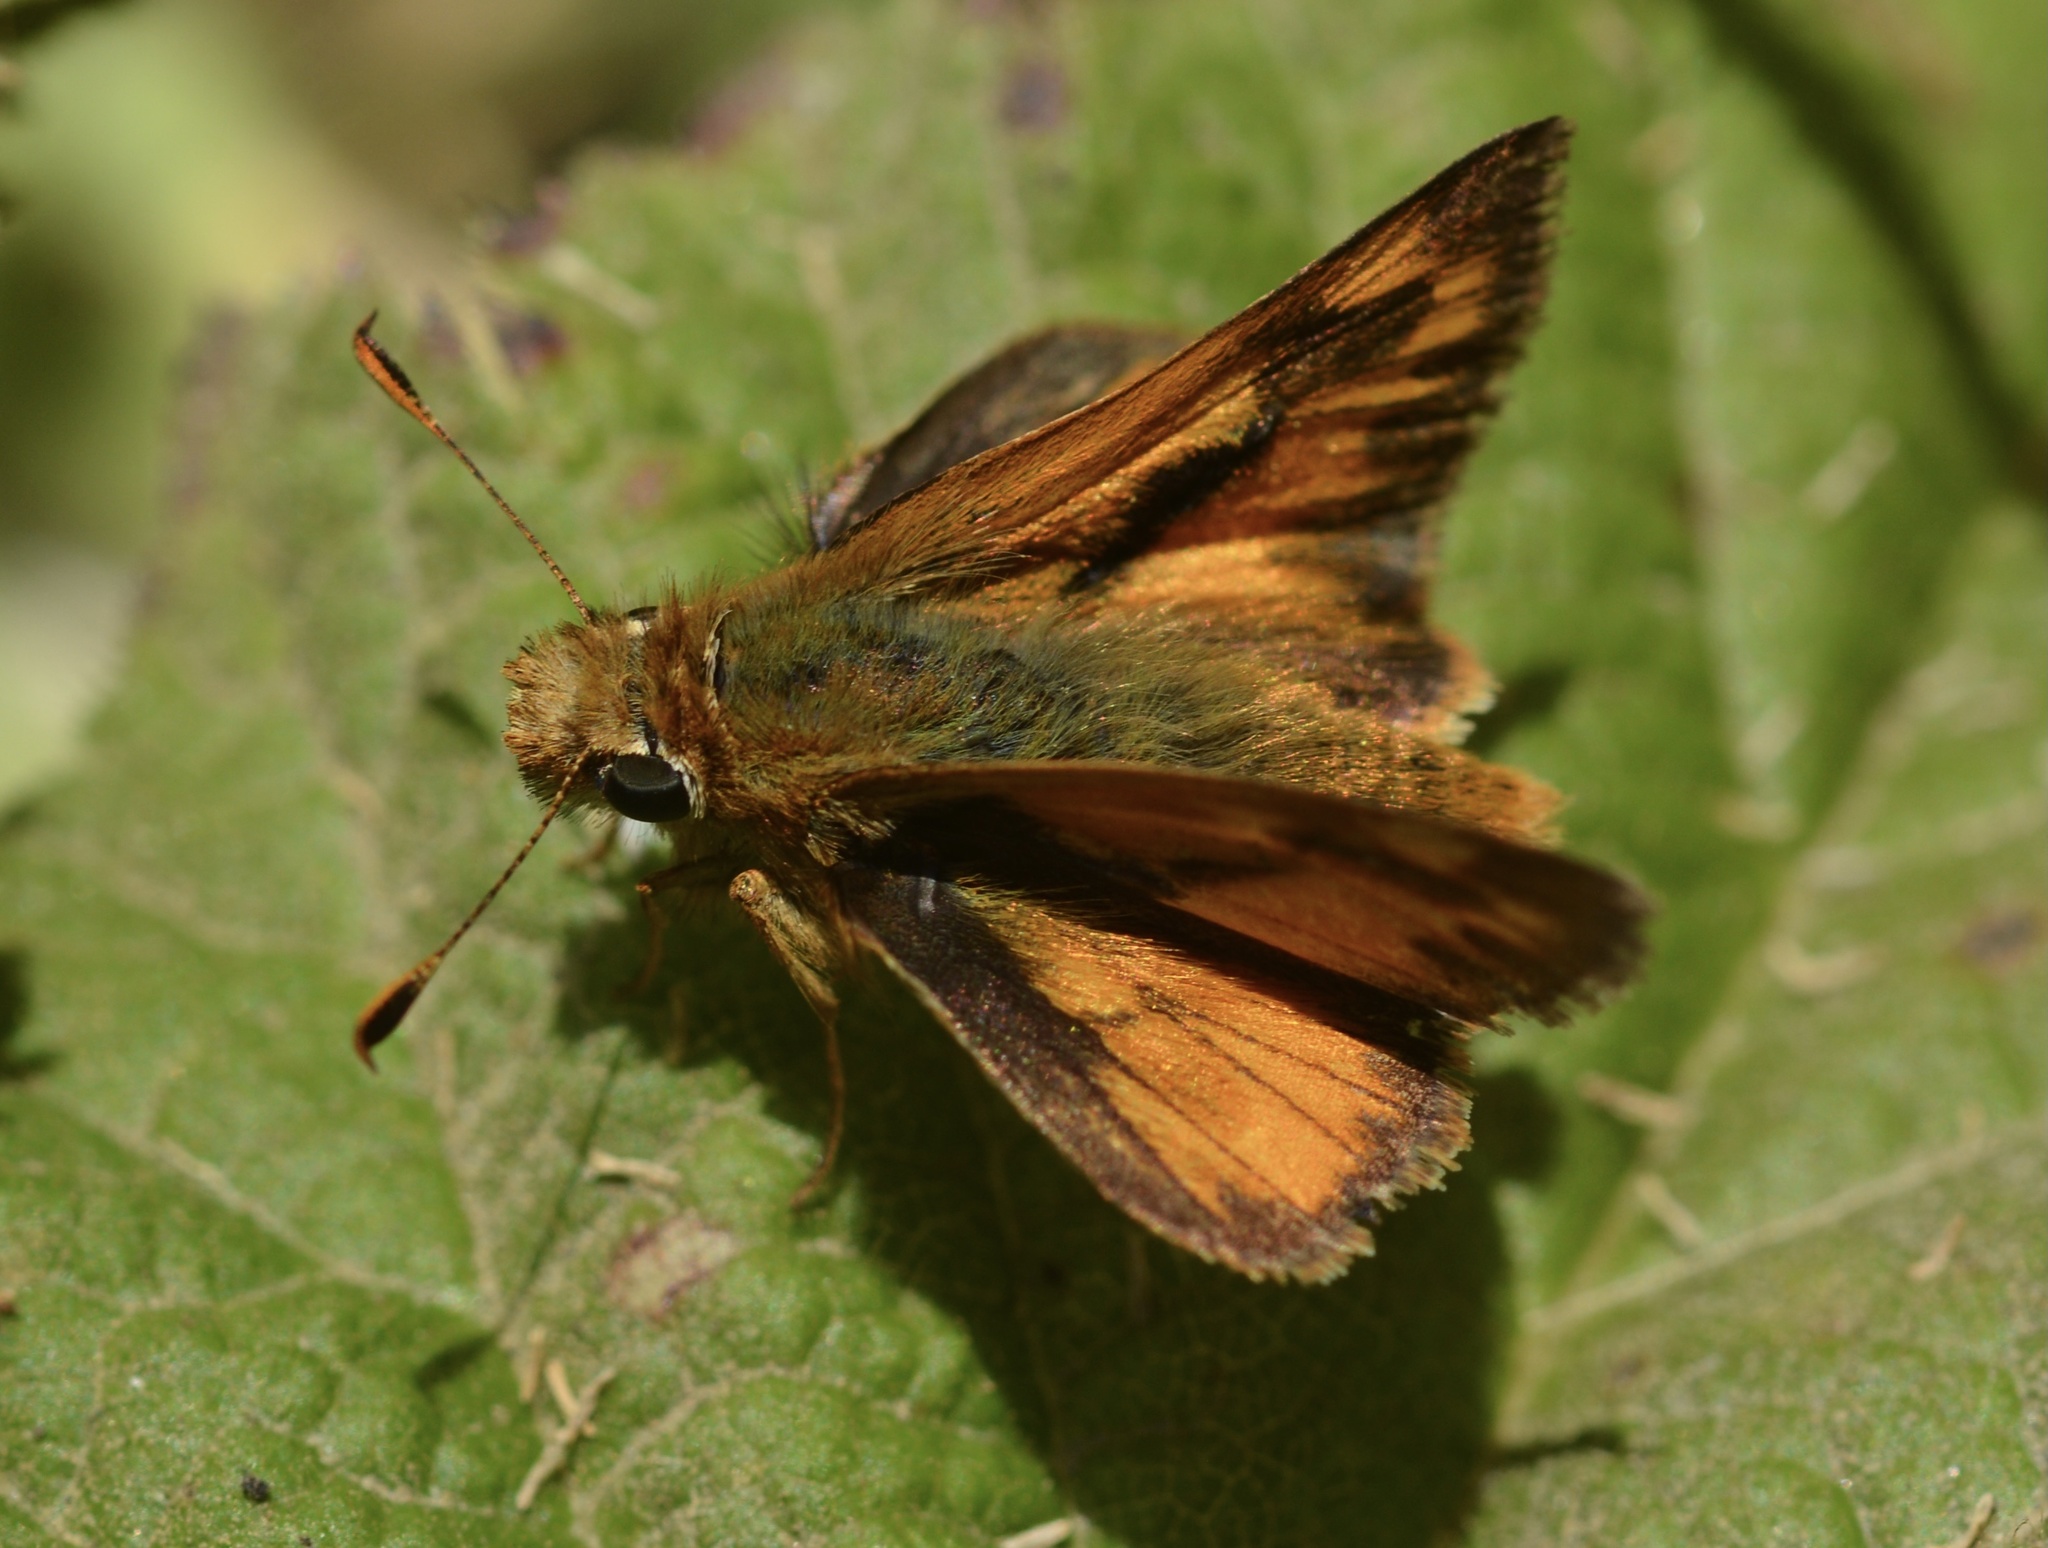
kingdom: Animalia
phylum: Arthropoda
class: Insecta
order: Lepidoptera
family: Hesperiidae
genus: Ochlodes
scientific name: Ochlodes sylvanoides
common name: Woodland skipper
